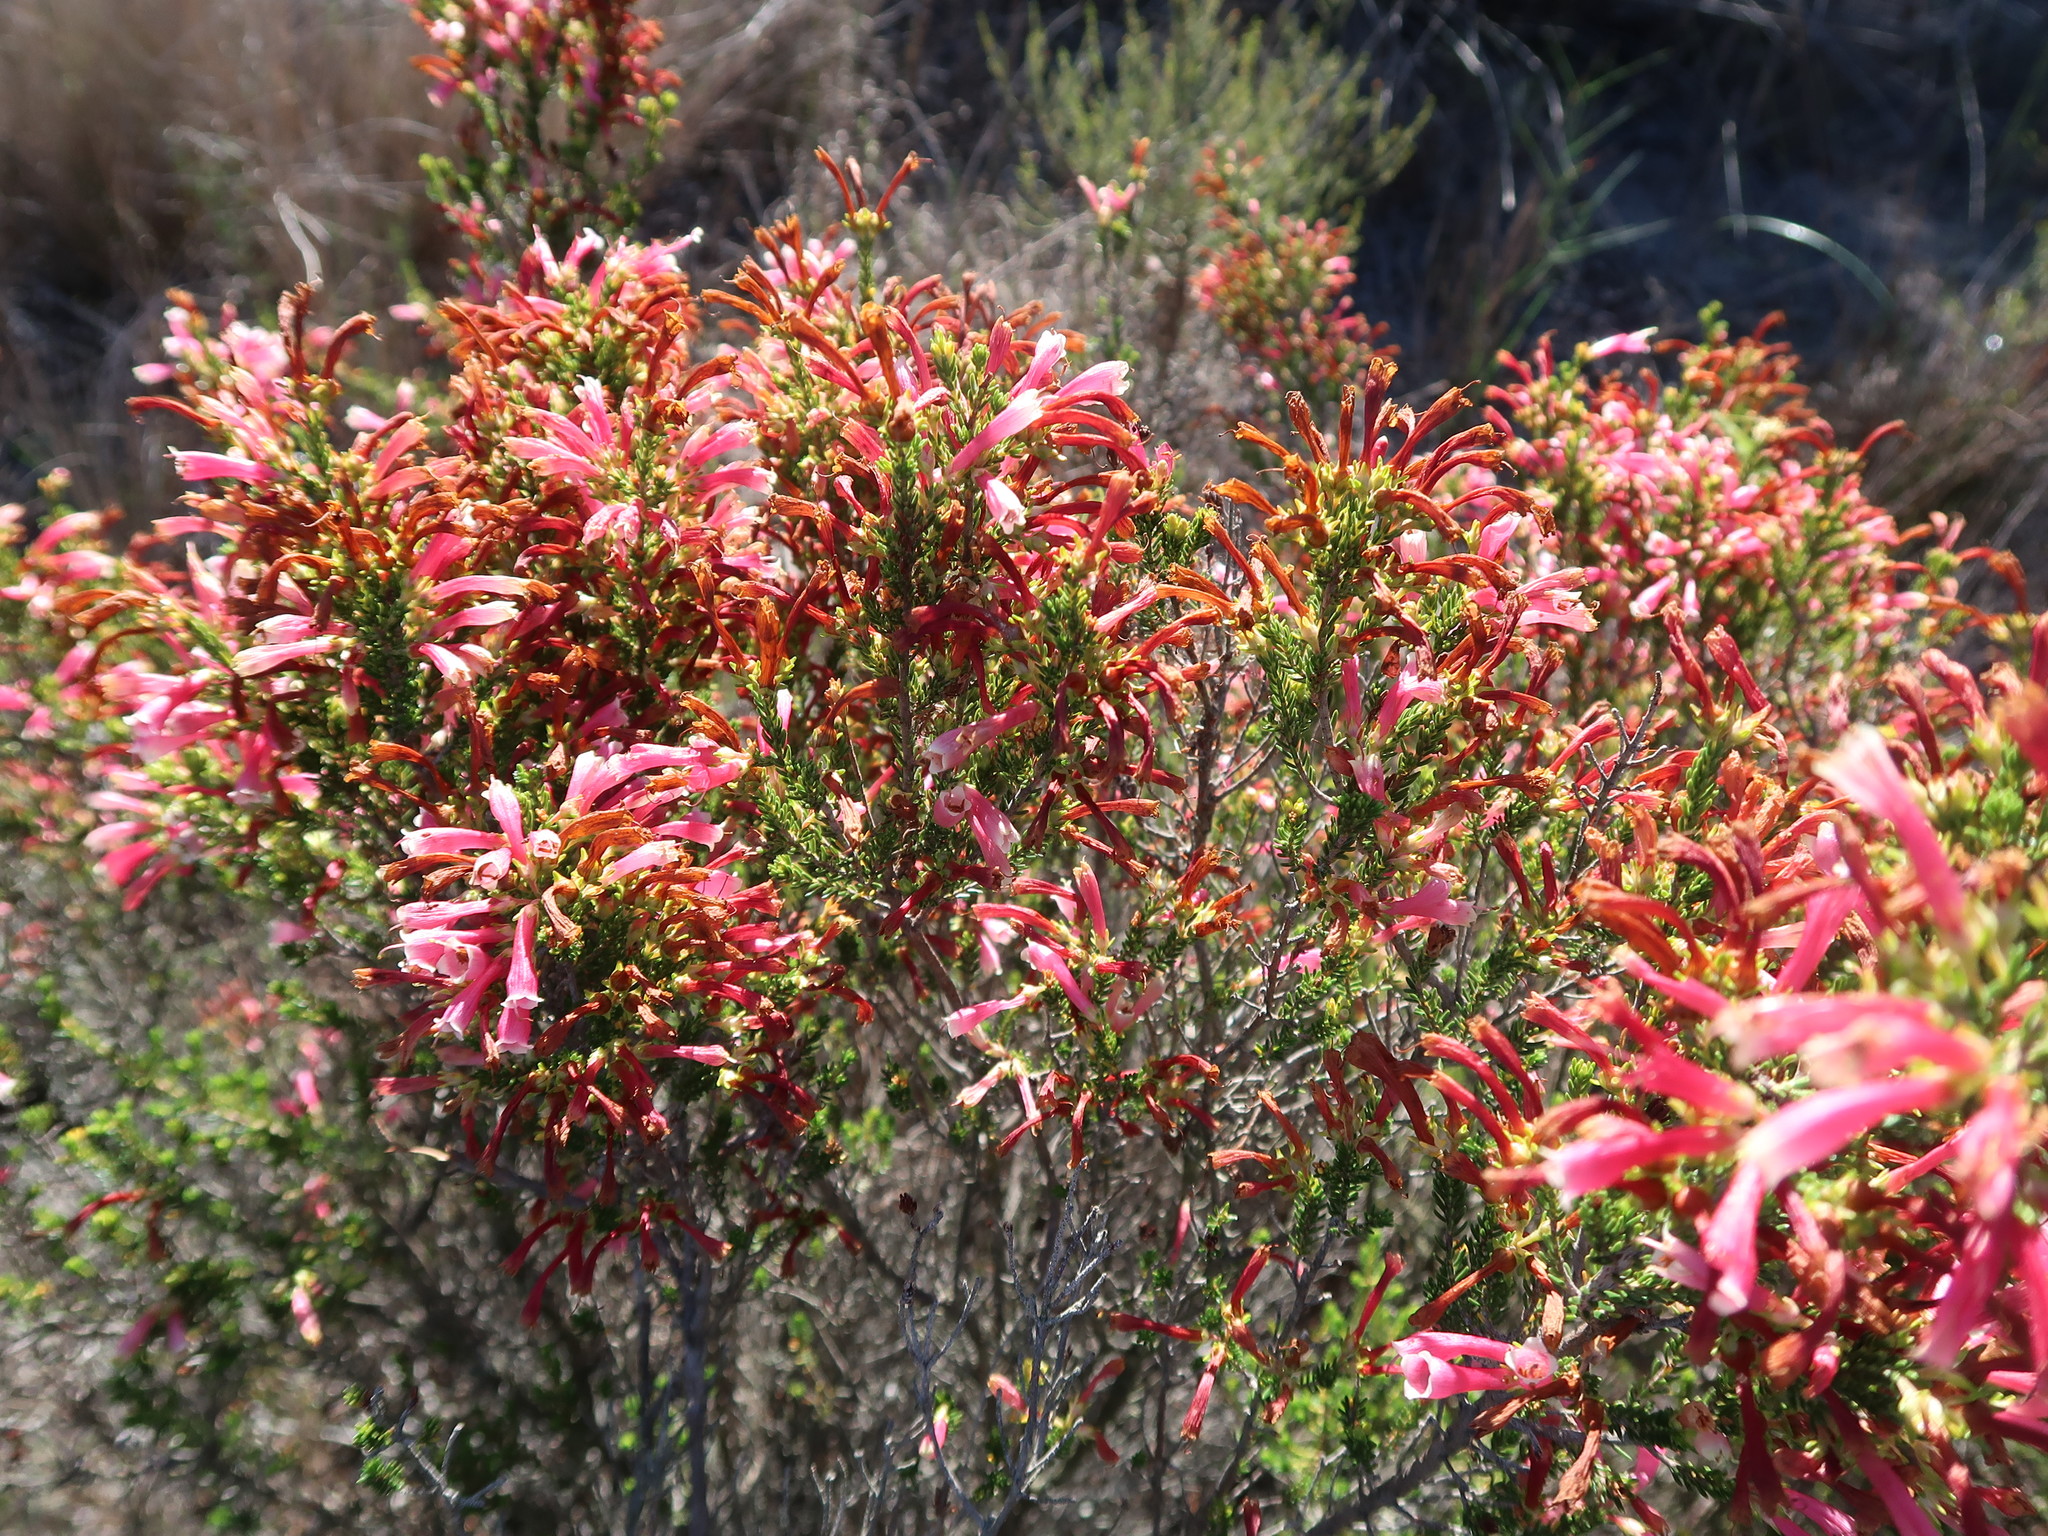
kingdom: Plantae
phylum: Tracheophyta
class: Magnoliopsida
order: Ericales
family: Ericaceae
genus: Erica
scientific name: Erica versicolor
